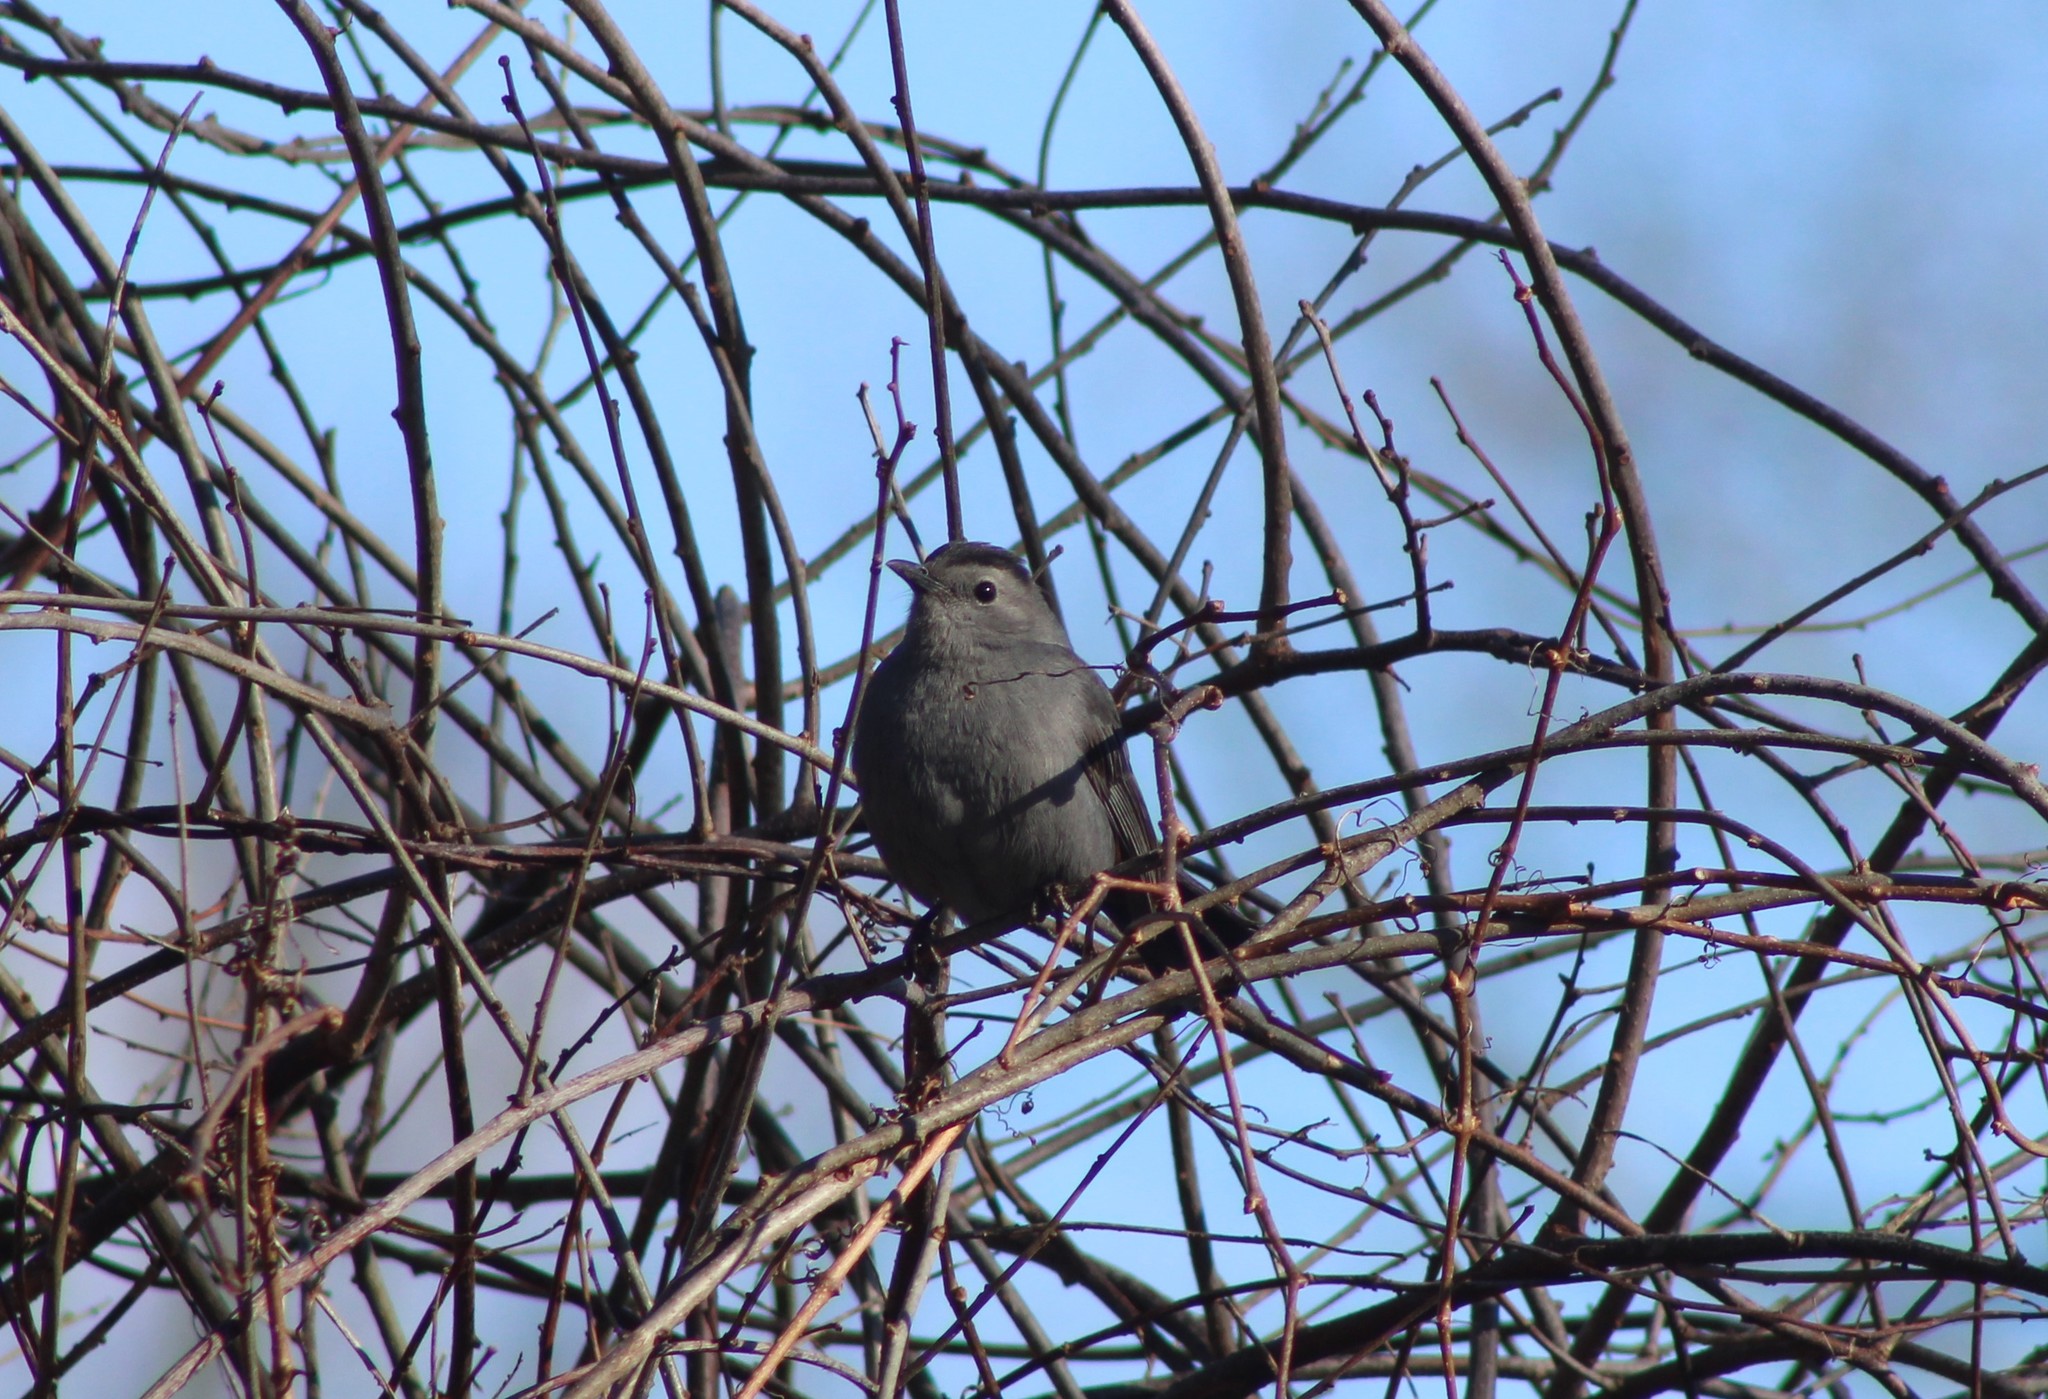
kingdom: Animalia
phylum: Chordata
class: Aves
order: Passeriformes
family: Mimidae
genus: Dumetella
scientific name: Dumetella carolinensis
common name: Gray catbird
